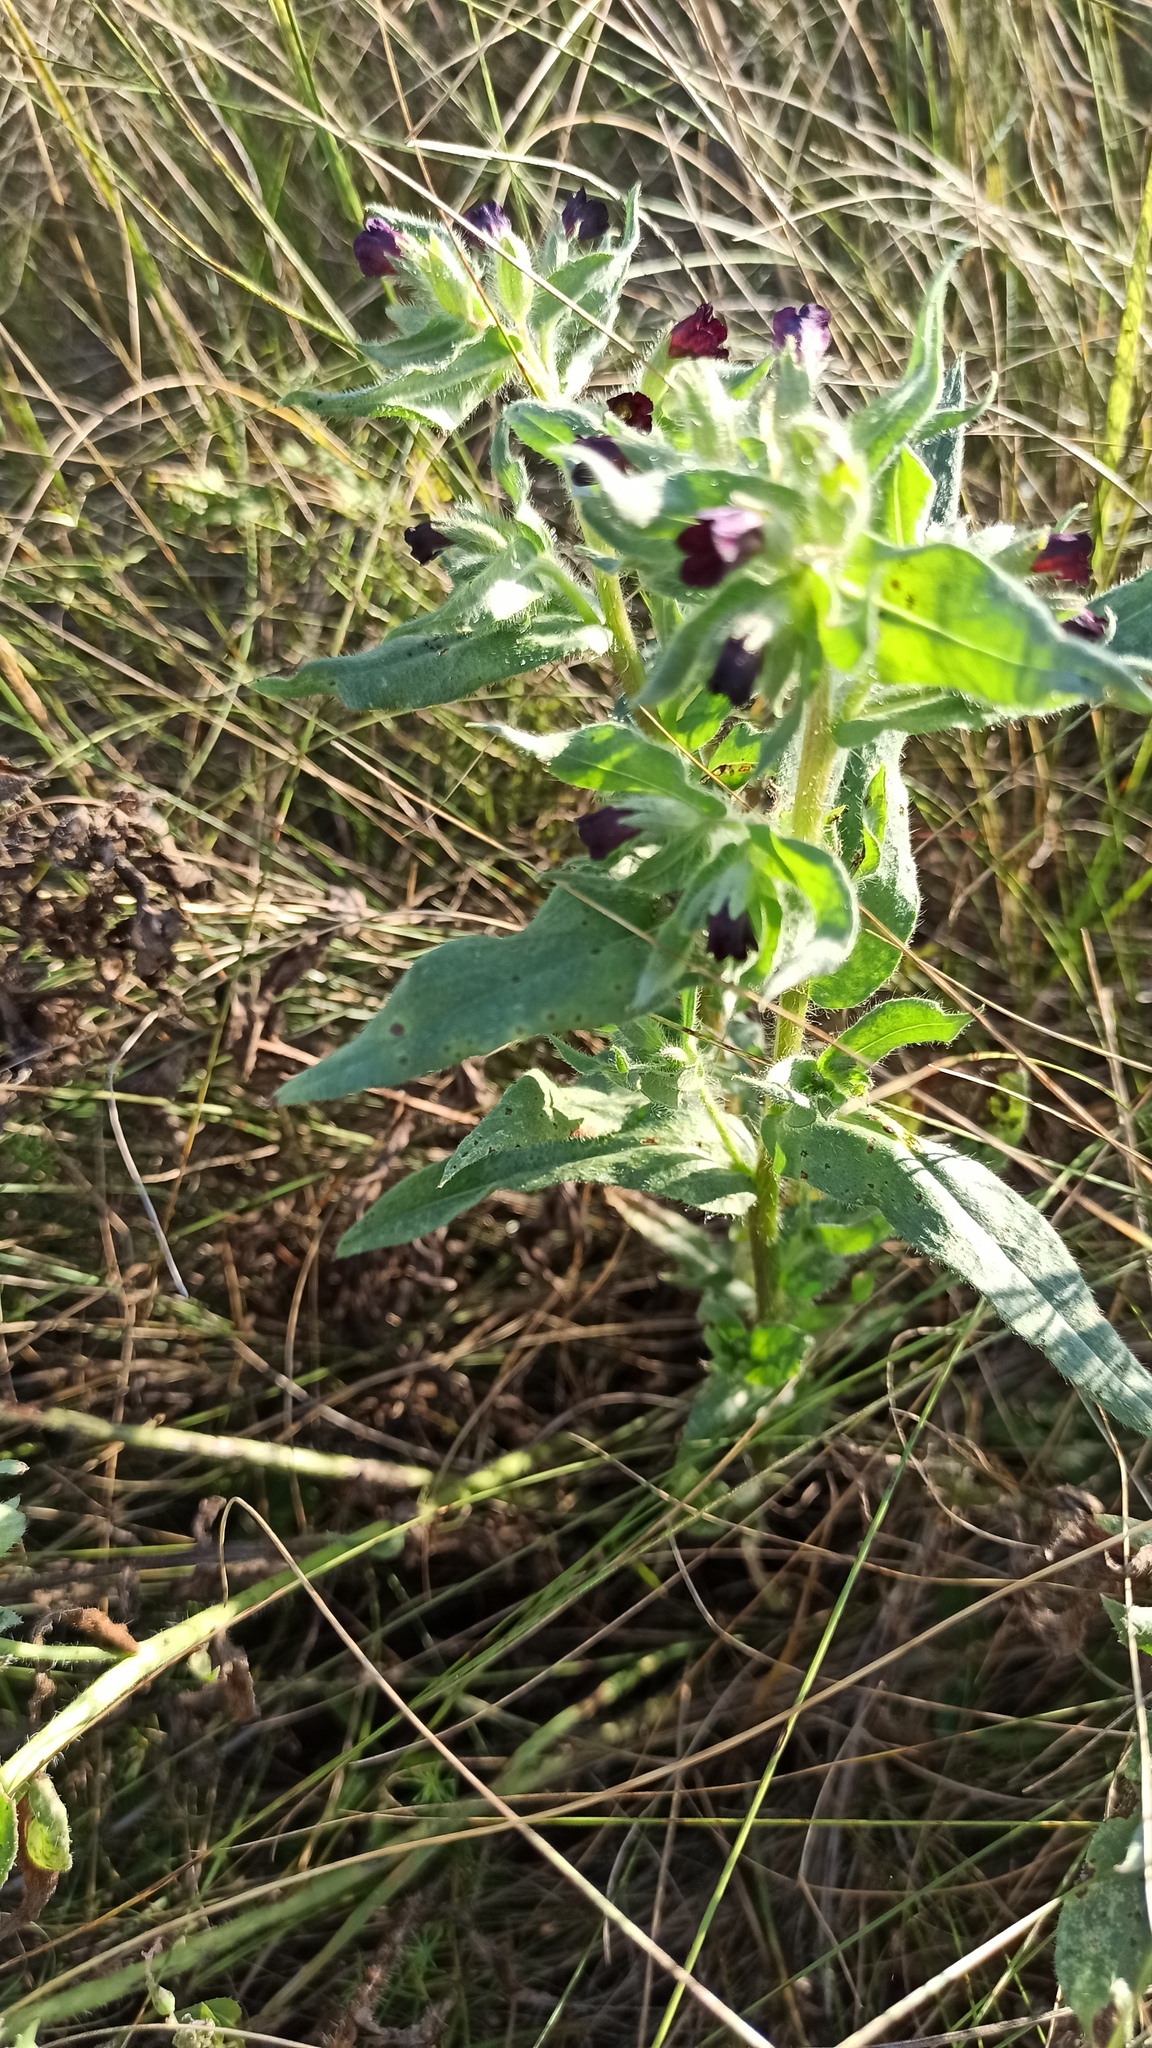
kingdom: Plantae
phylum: Tracheophyta
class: Magnoliopsida
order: Boraginales
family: Boraginaceae
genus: Nonea
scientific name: Nonea pulla
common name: Brown nonea
